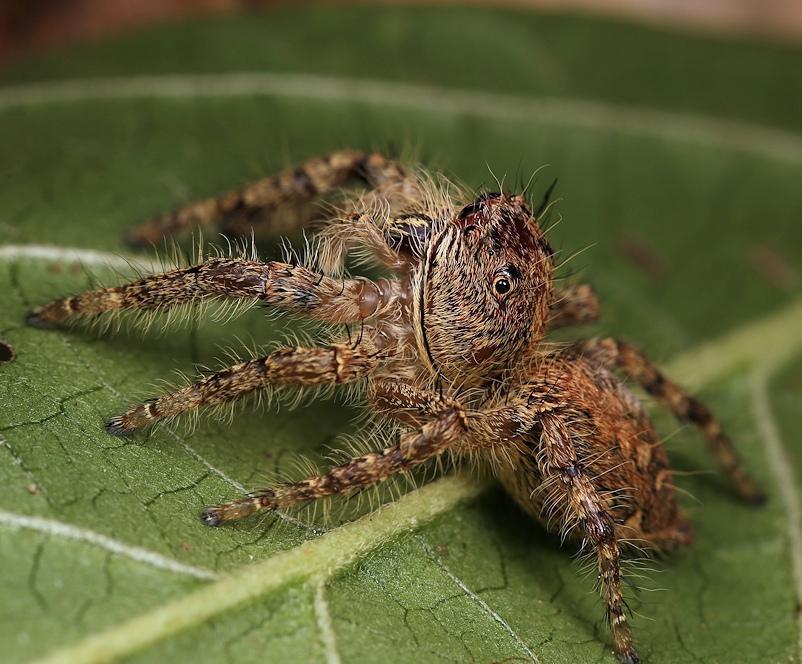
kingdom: Animalia
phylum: Arthropoda
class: Arachnida
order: Araneae
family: Salticidae
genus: Hyllus
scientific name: Hyllus treleaveni
